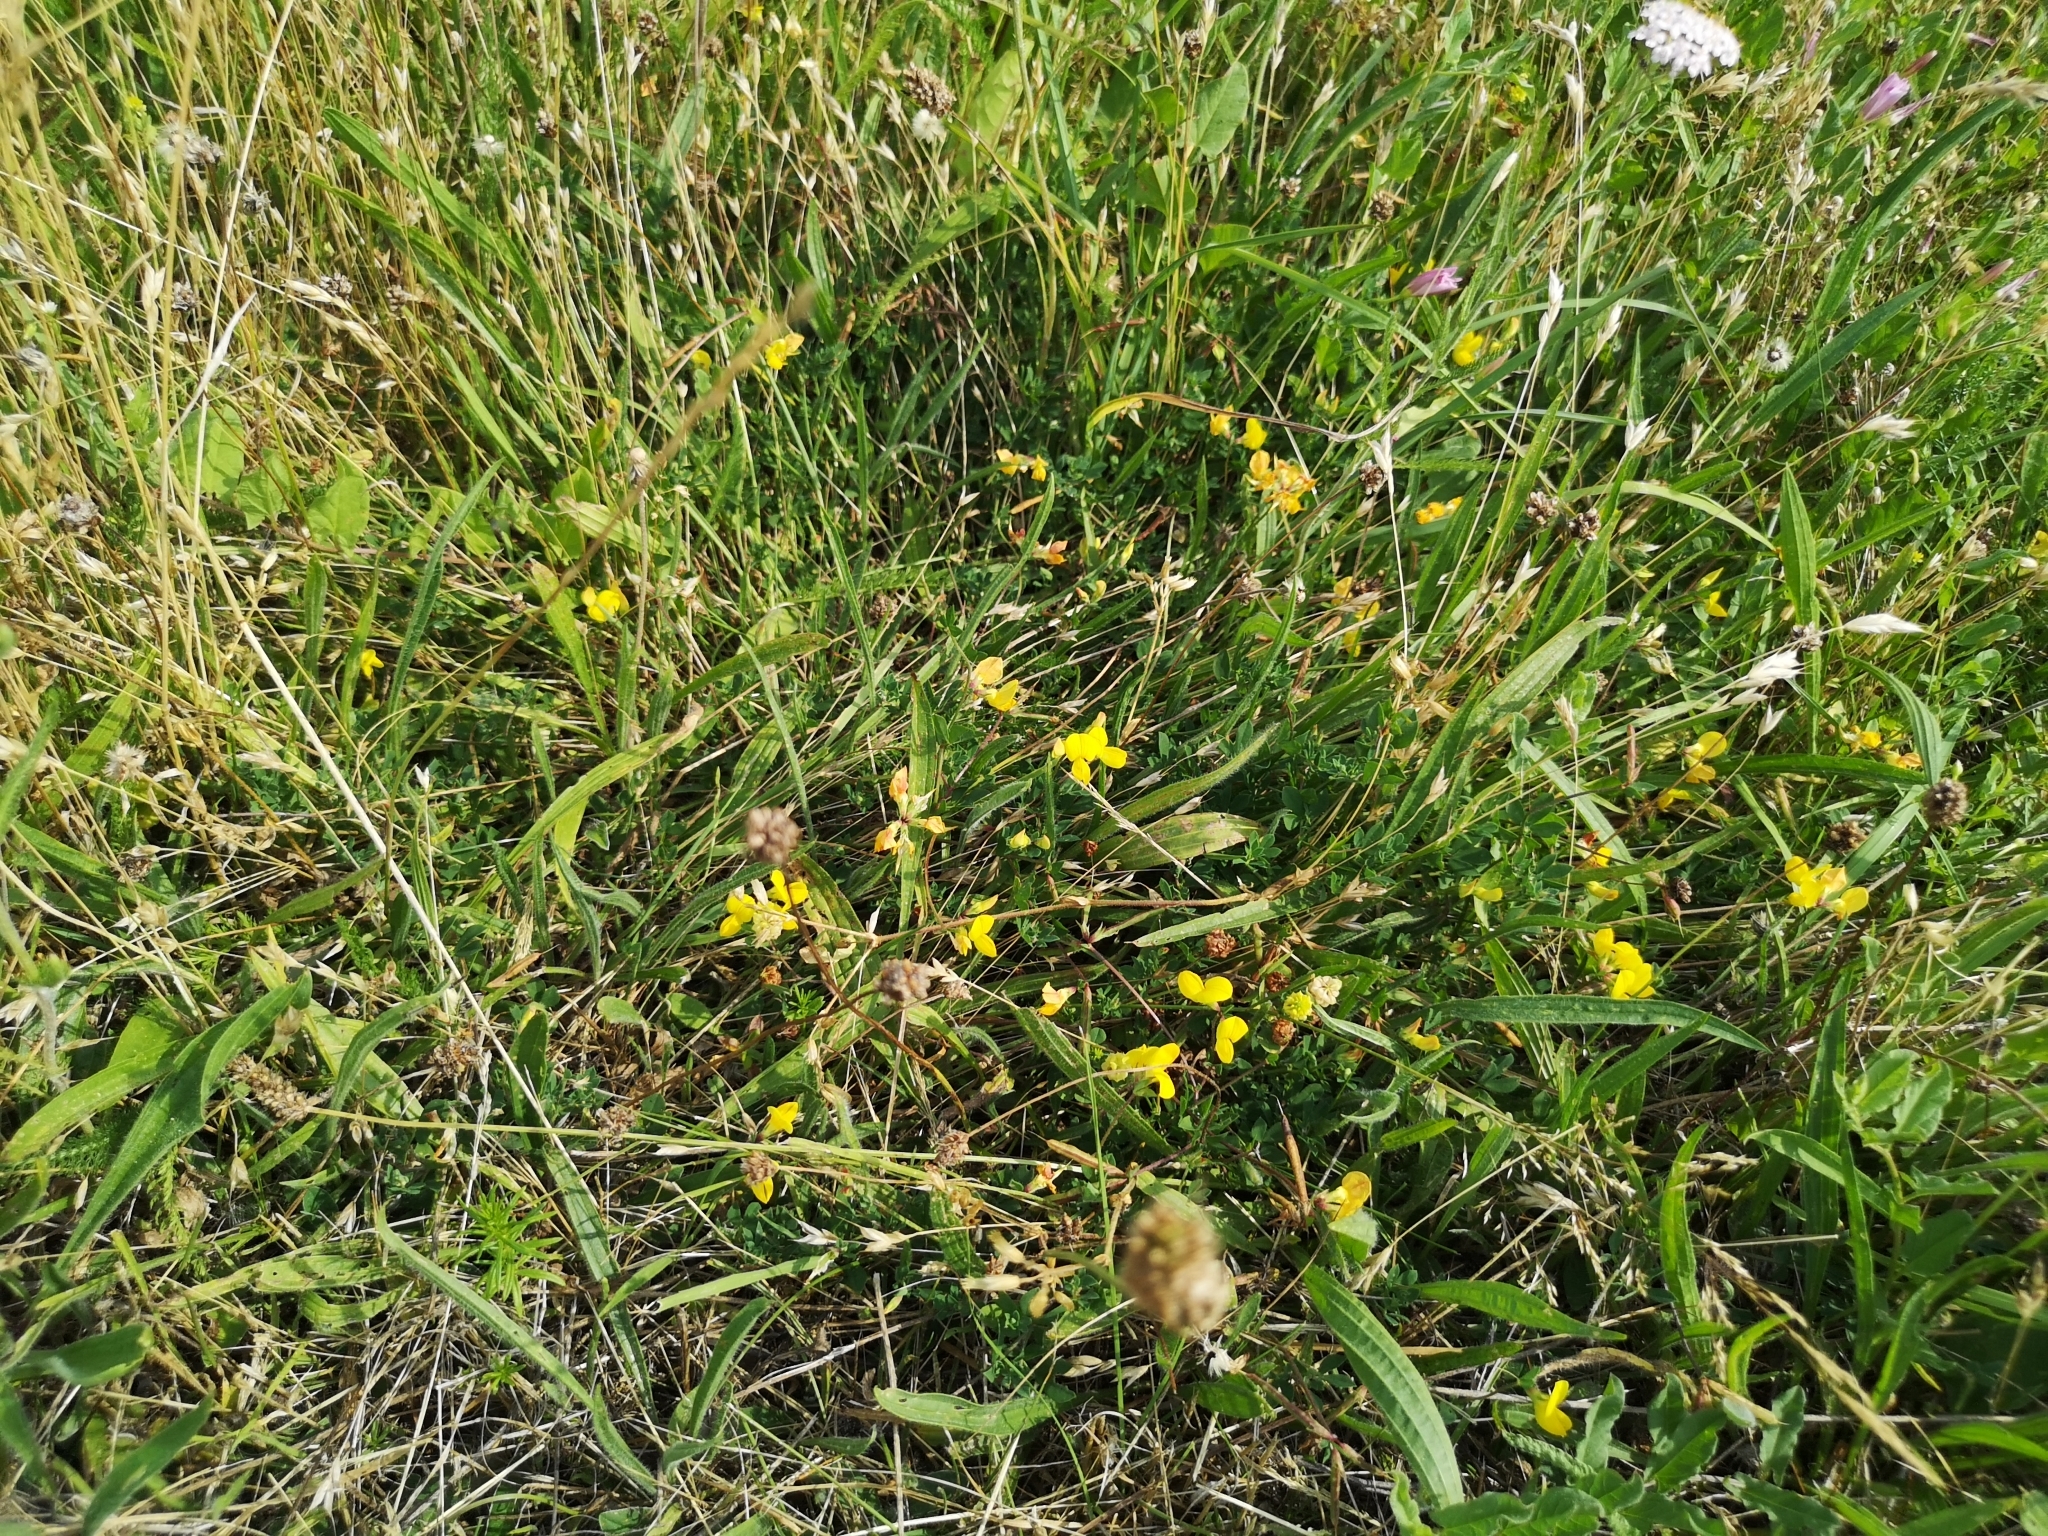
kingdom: Plantae
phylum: Tracheophyta
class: Magnoliopsida
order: Fabales
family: Fabaceae
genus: Lotus
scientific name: Lotus corniculatus
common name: Common bird's-foot-trefoil
